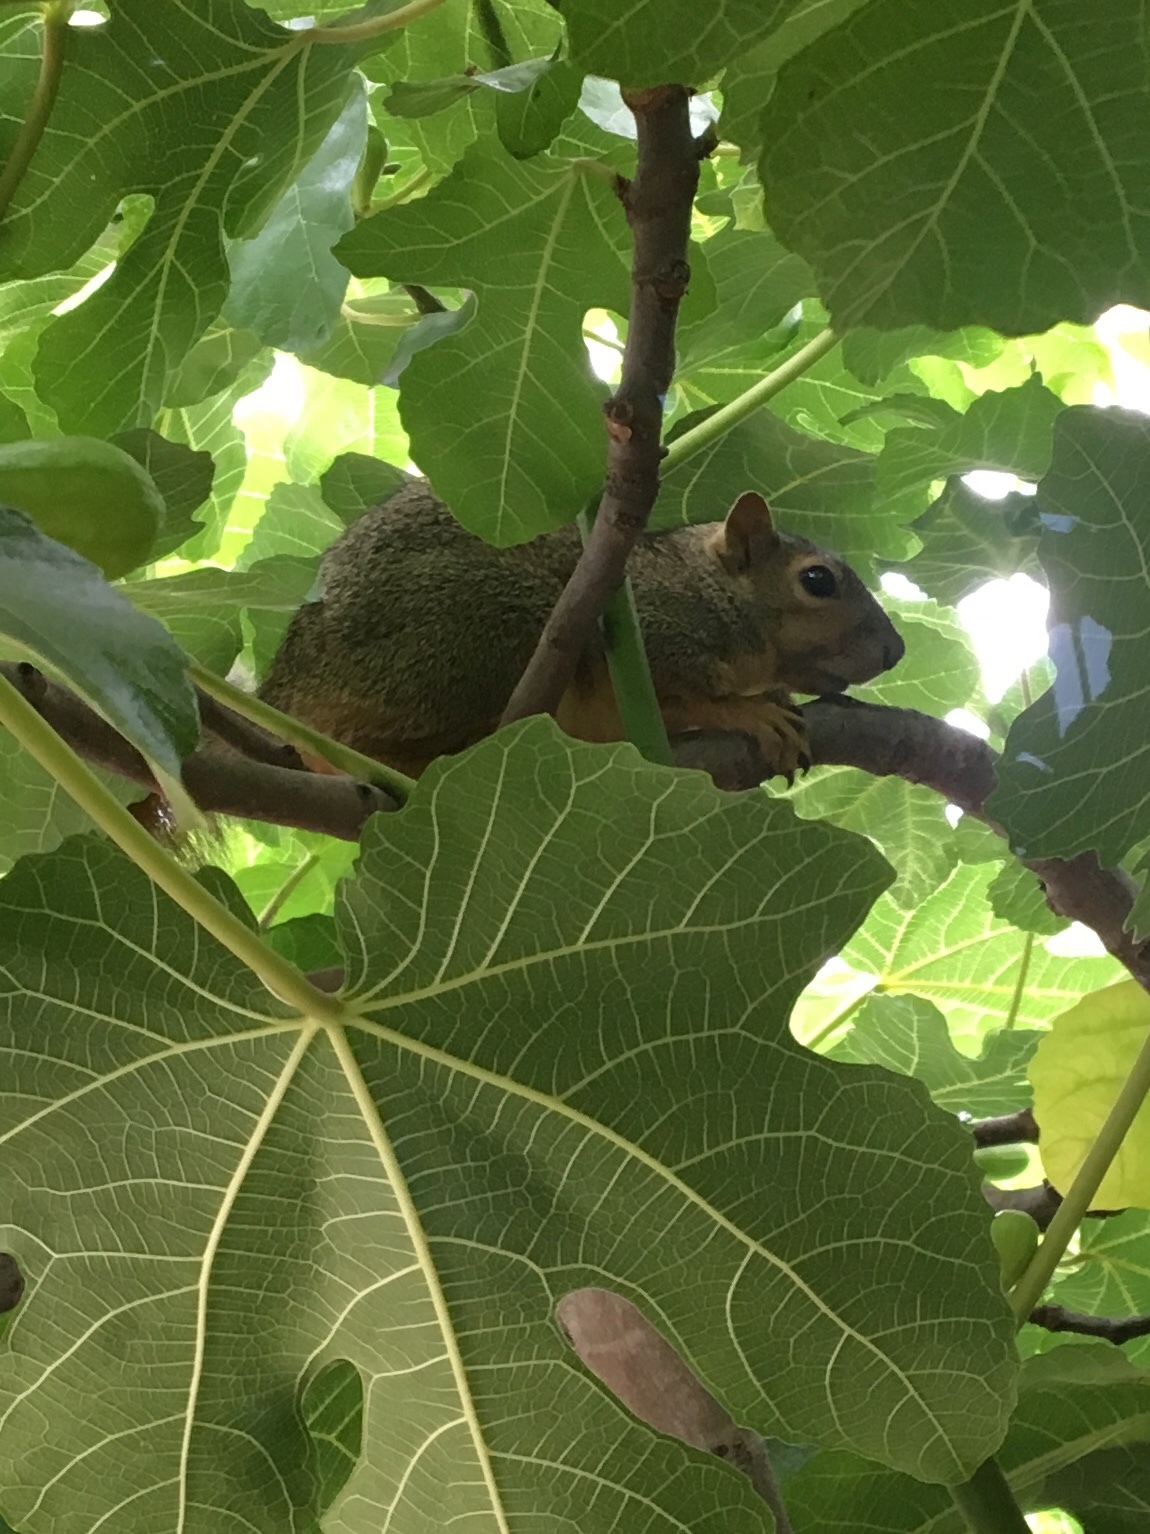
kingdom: Animalia
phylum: Chordata
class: Mammalia
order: Rodentia
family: Sciuridae
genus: Sciurus
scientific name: Sciurus niger
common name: Fox squirrel
